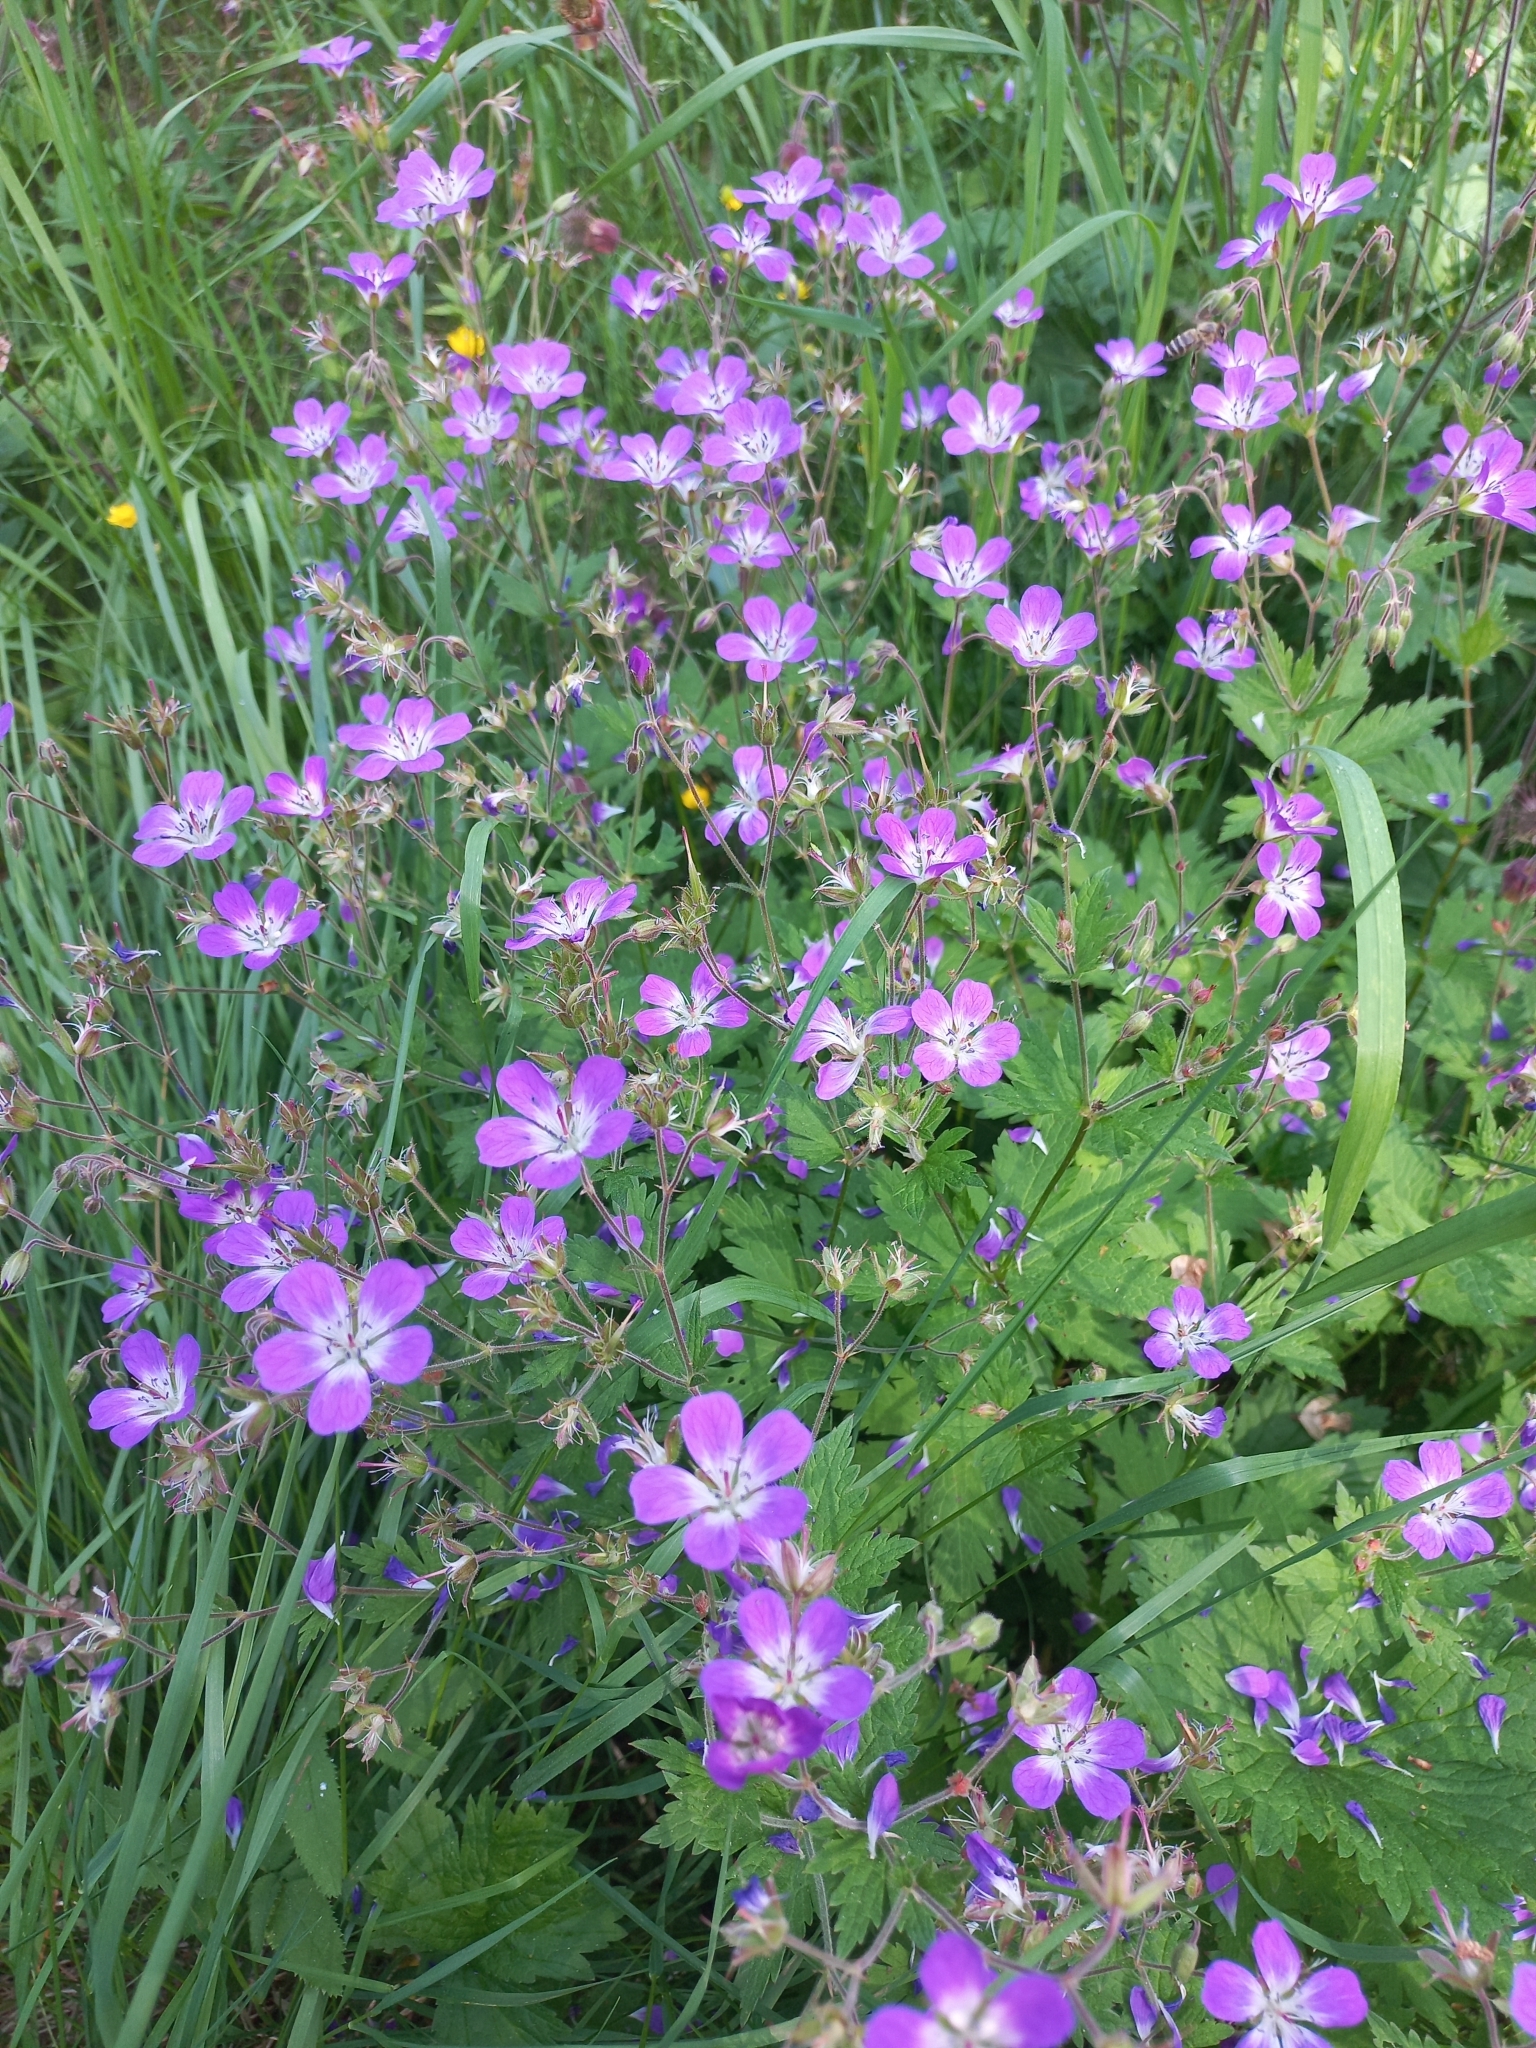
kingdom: Plantae
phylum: Tracheophyta
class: Magnoliopsida
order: Geraniales
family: Geraniaceae
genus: Geranium
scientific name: Geranium sylvaticum
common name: Wood crane's-bill
